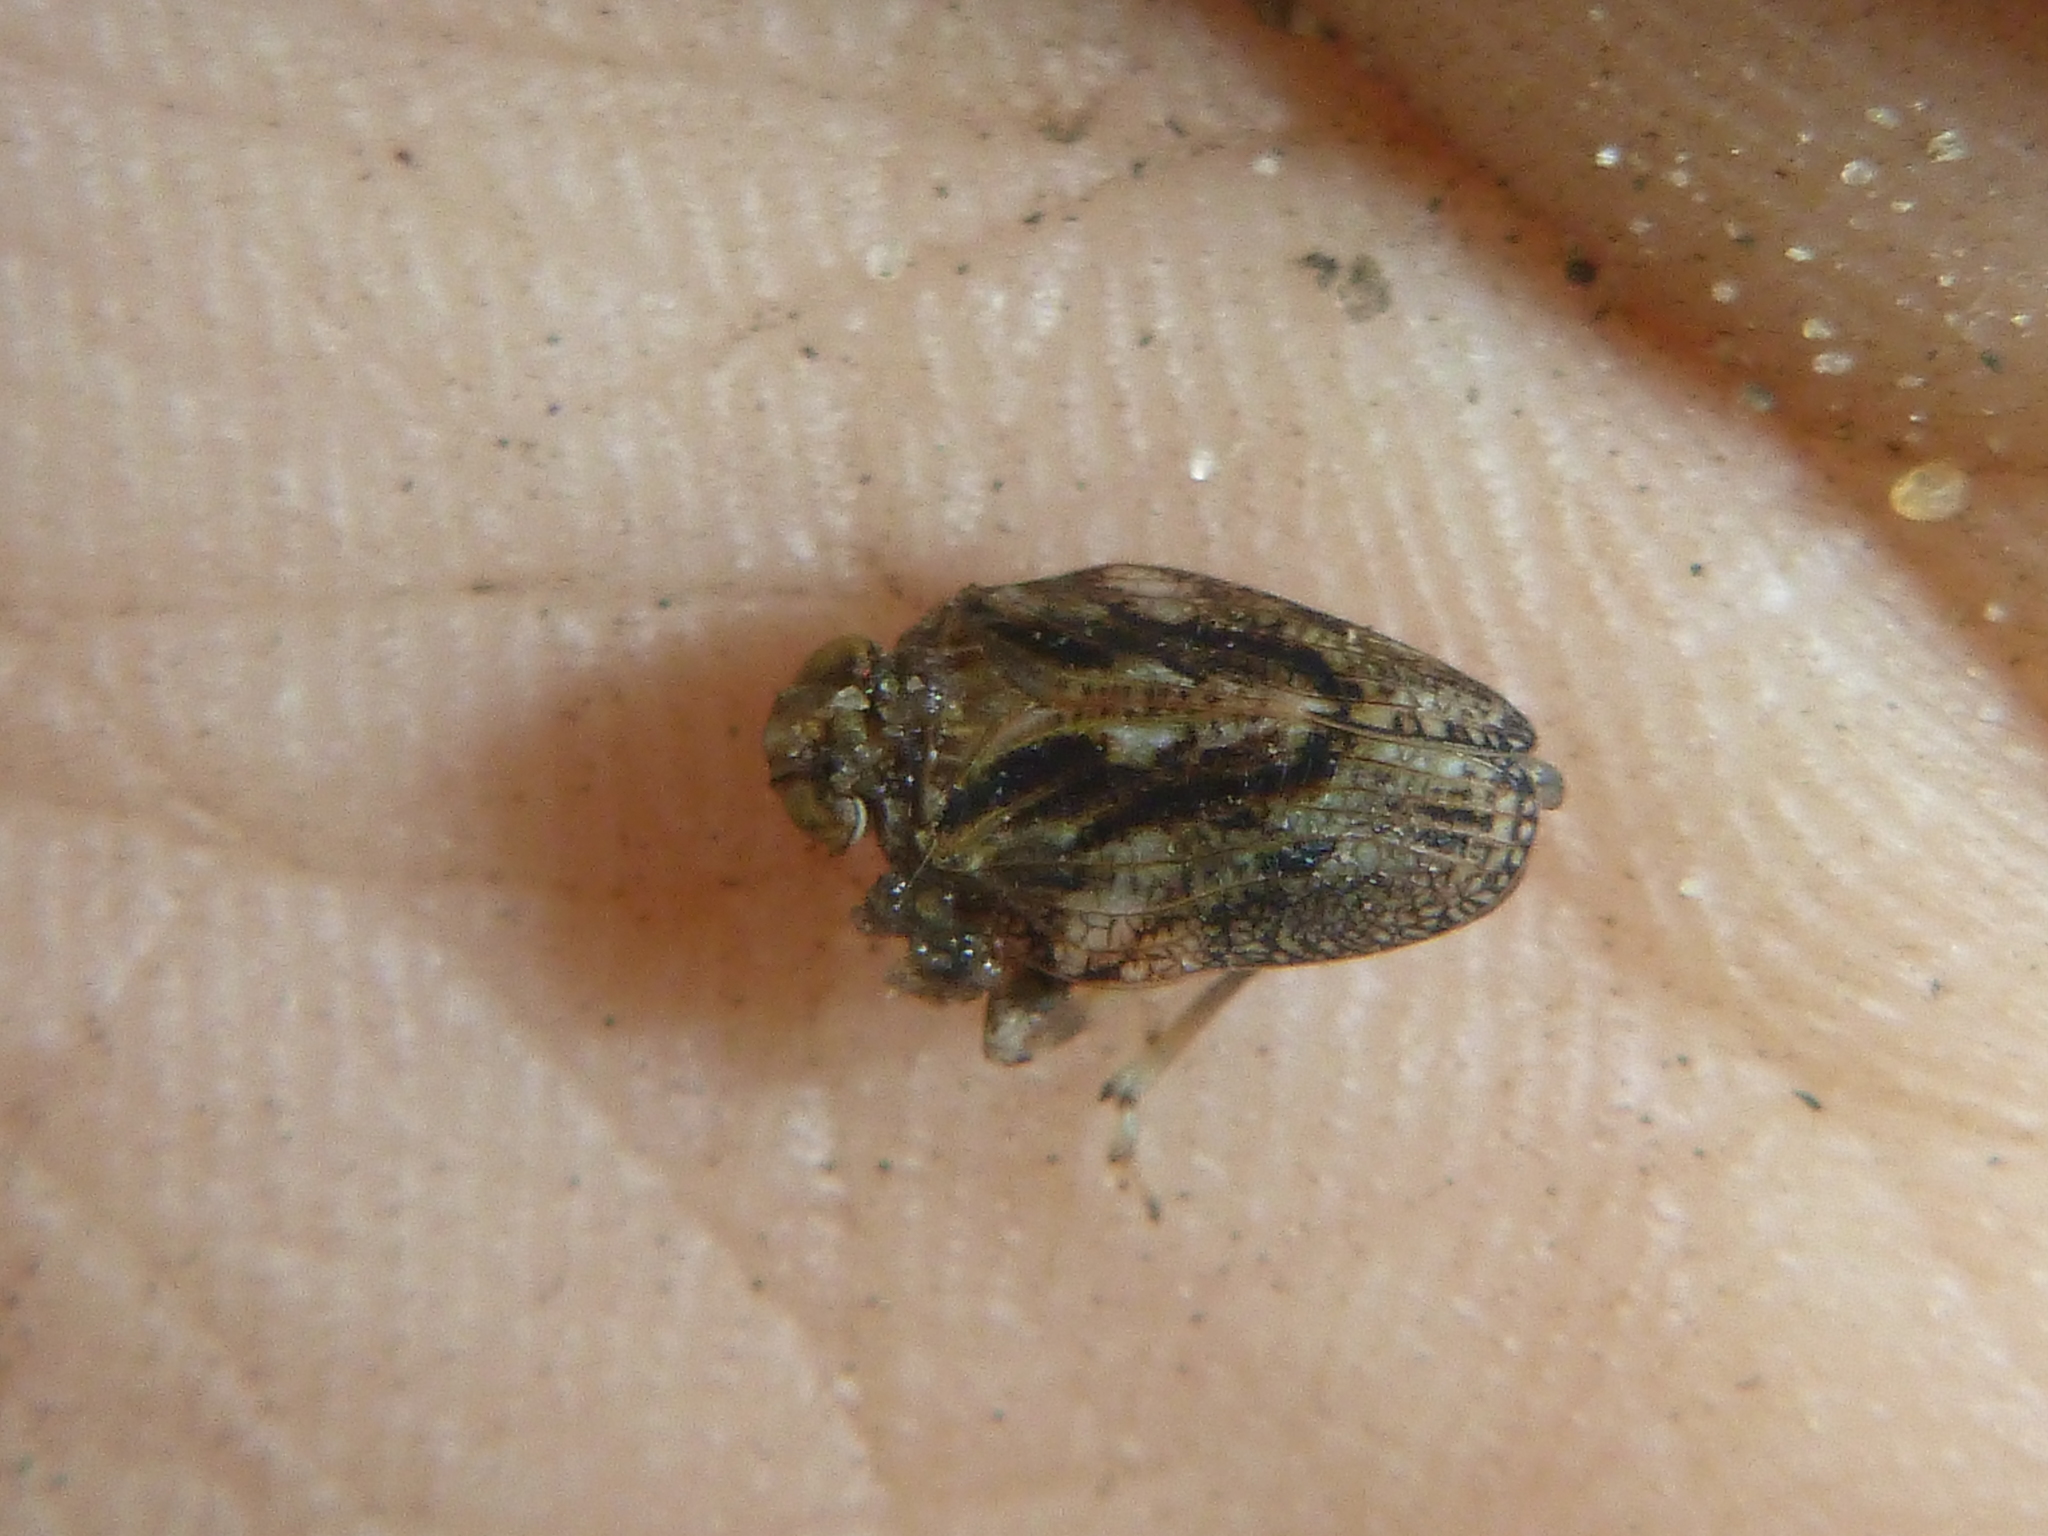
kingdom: Animalia
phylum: Arthropoda
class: Insecta
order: Hemiptera
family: Issidae
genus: Issus
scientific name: Issus coleoptratus
